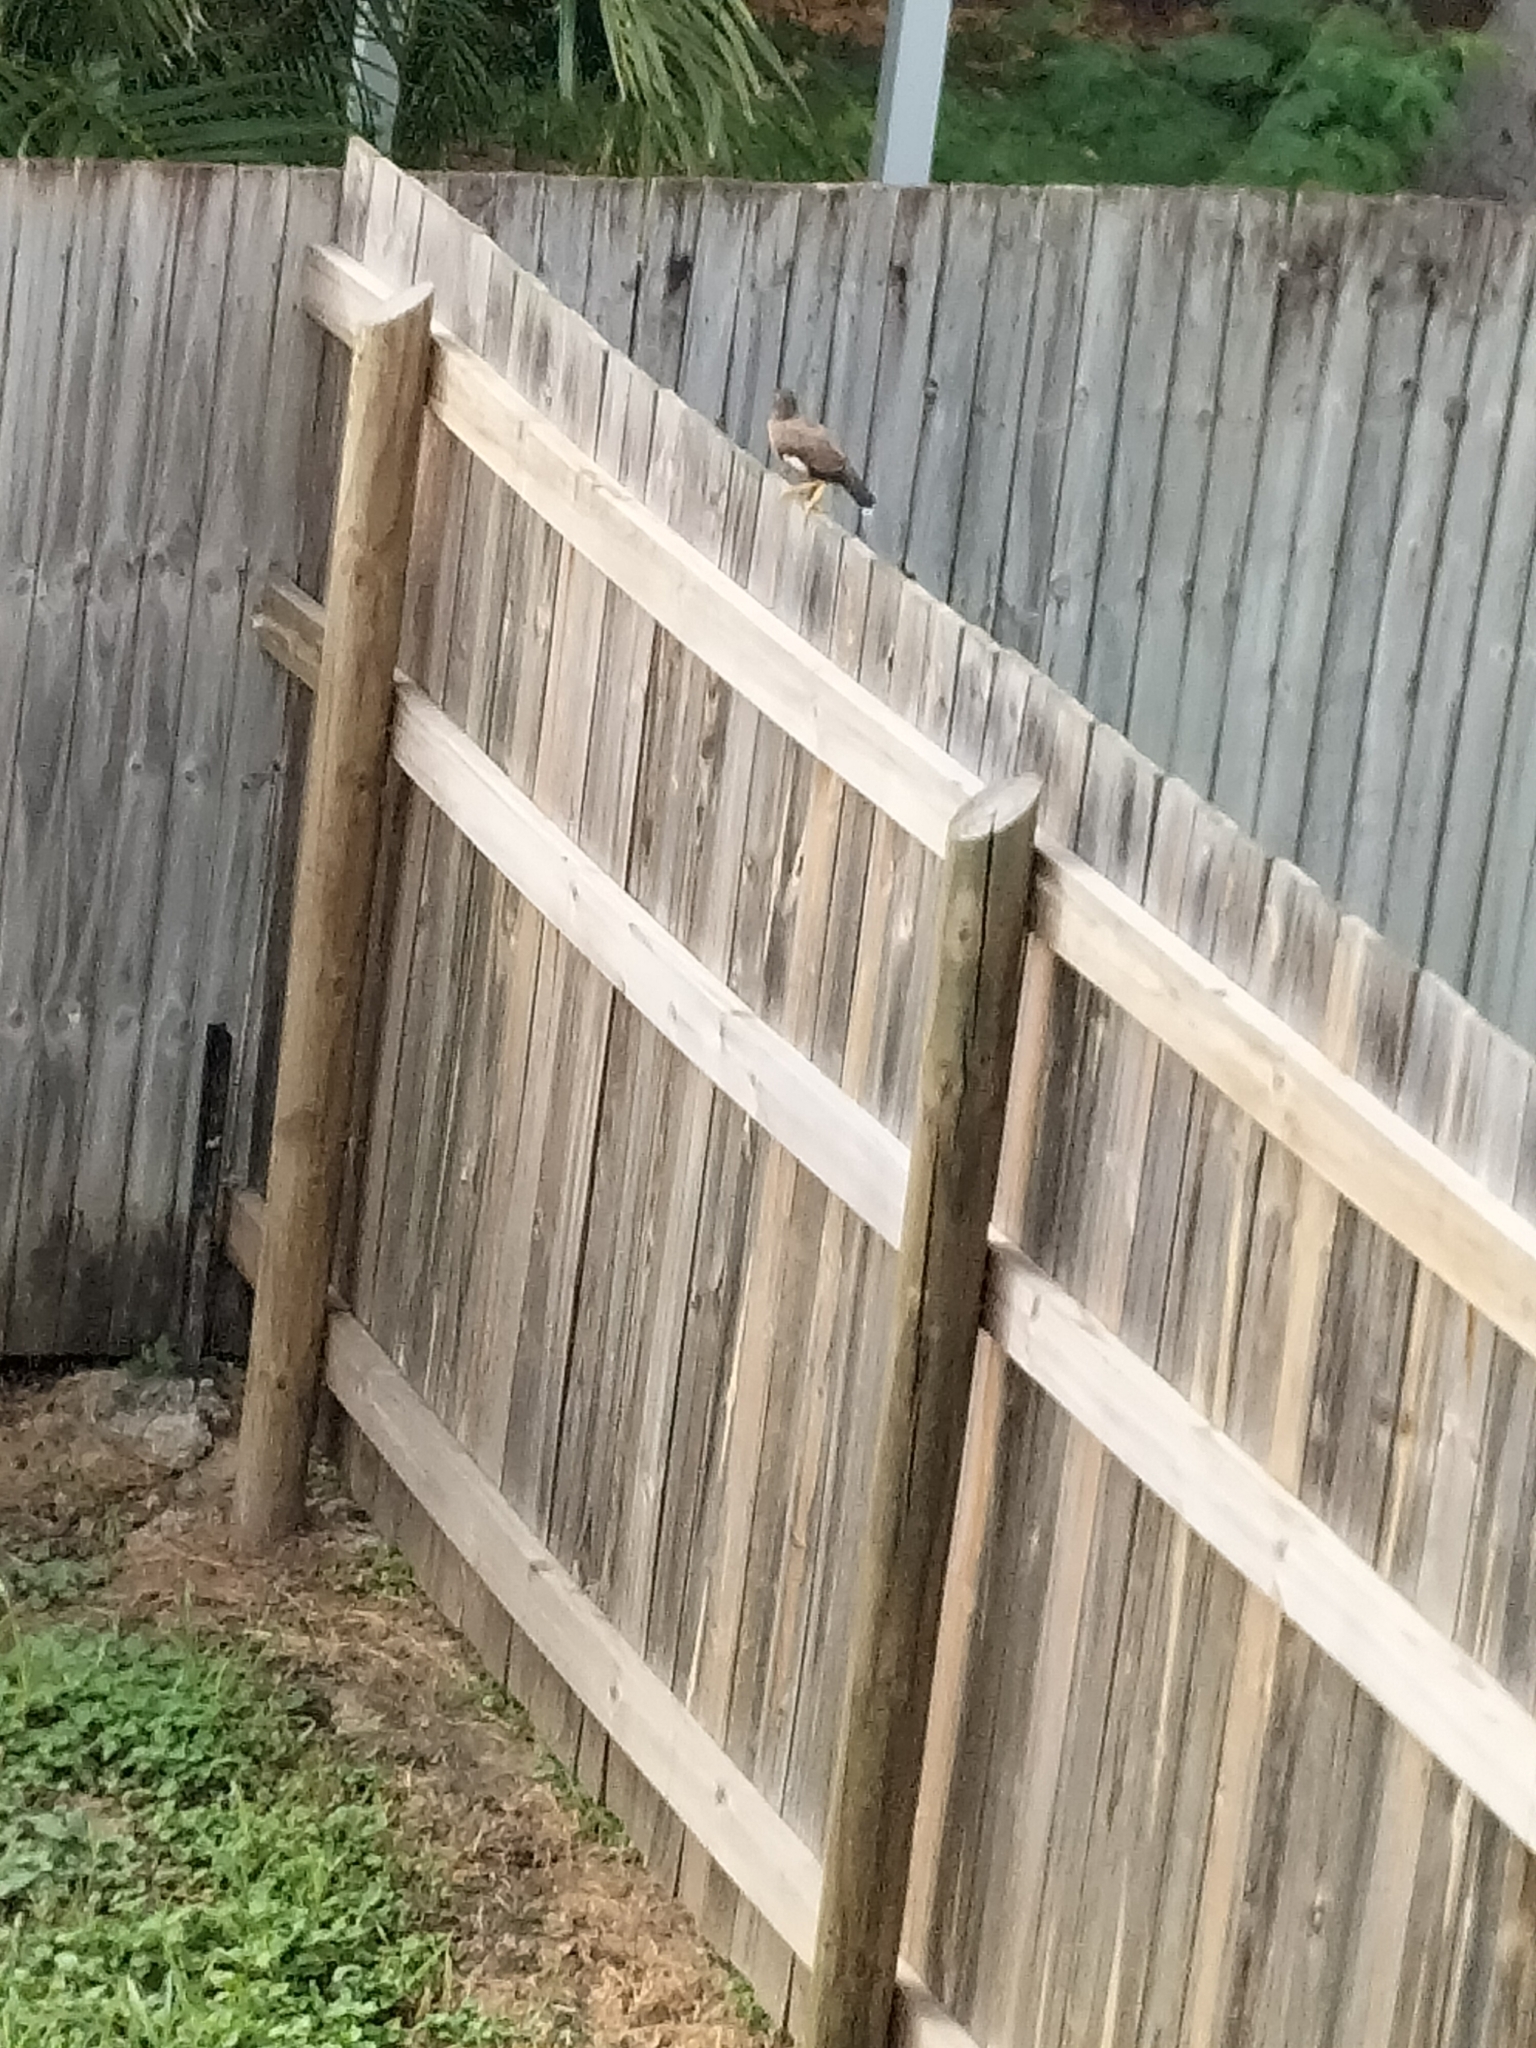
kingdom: Animalia
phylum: Chordata
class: Aves
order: Passeriformes
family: Sturnidae
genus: Acridotheres
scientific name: Acridotheres tristis
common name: Common myna
